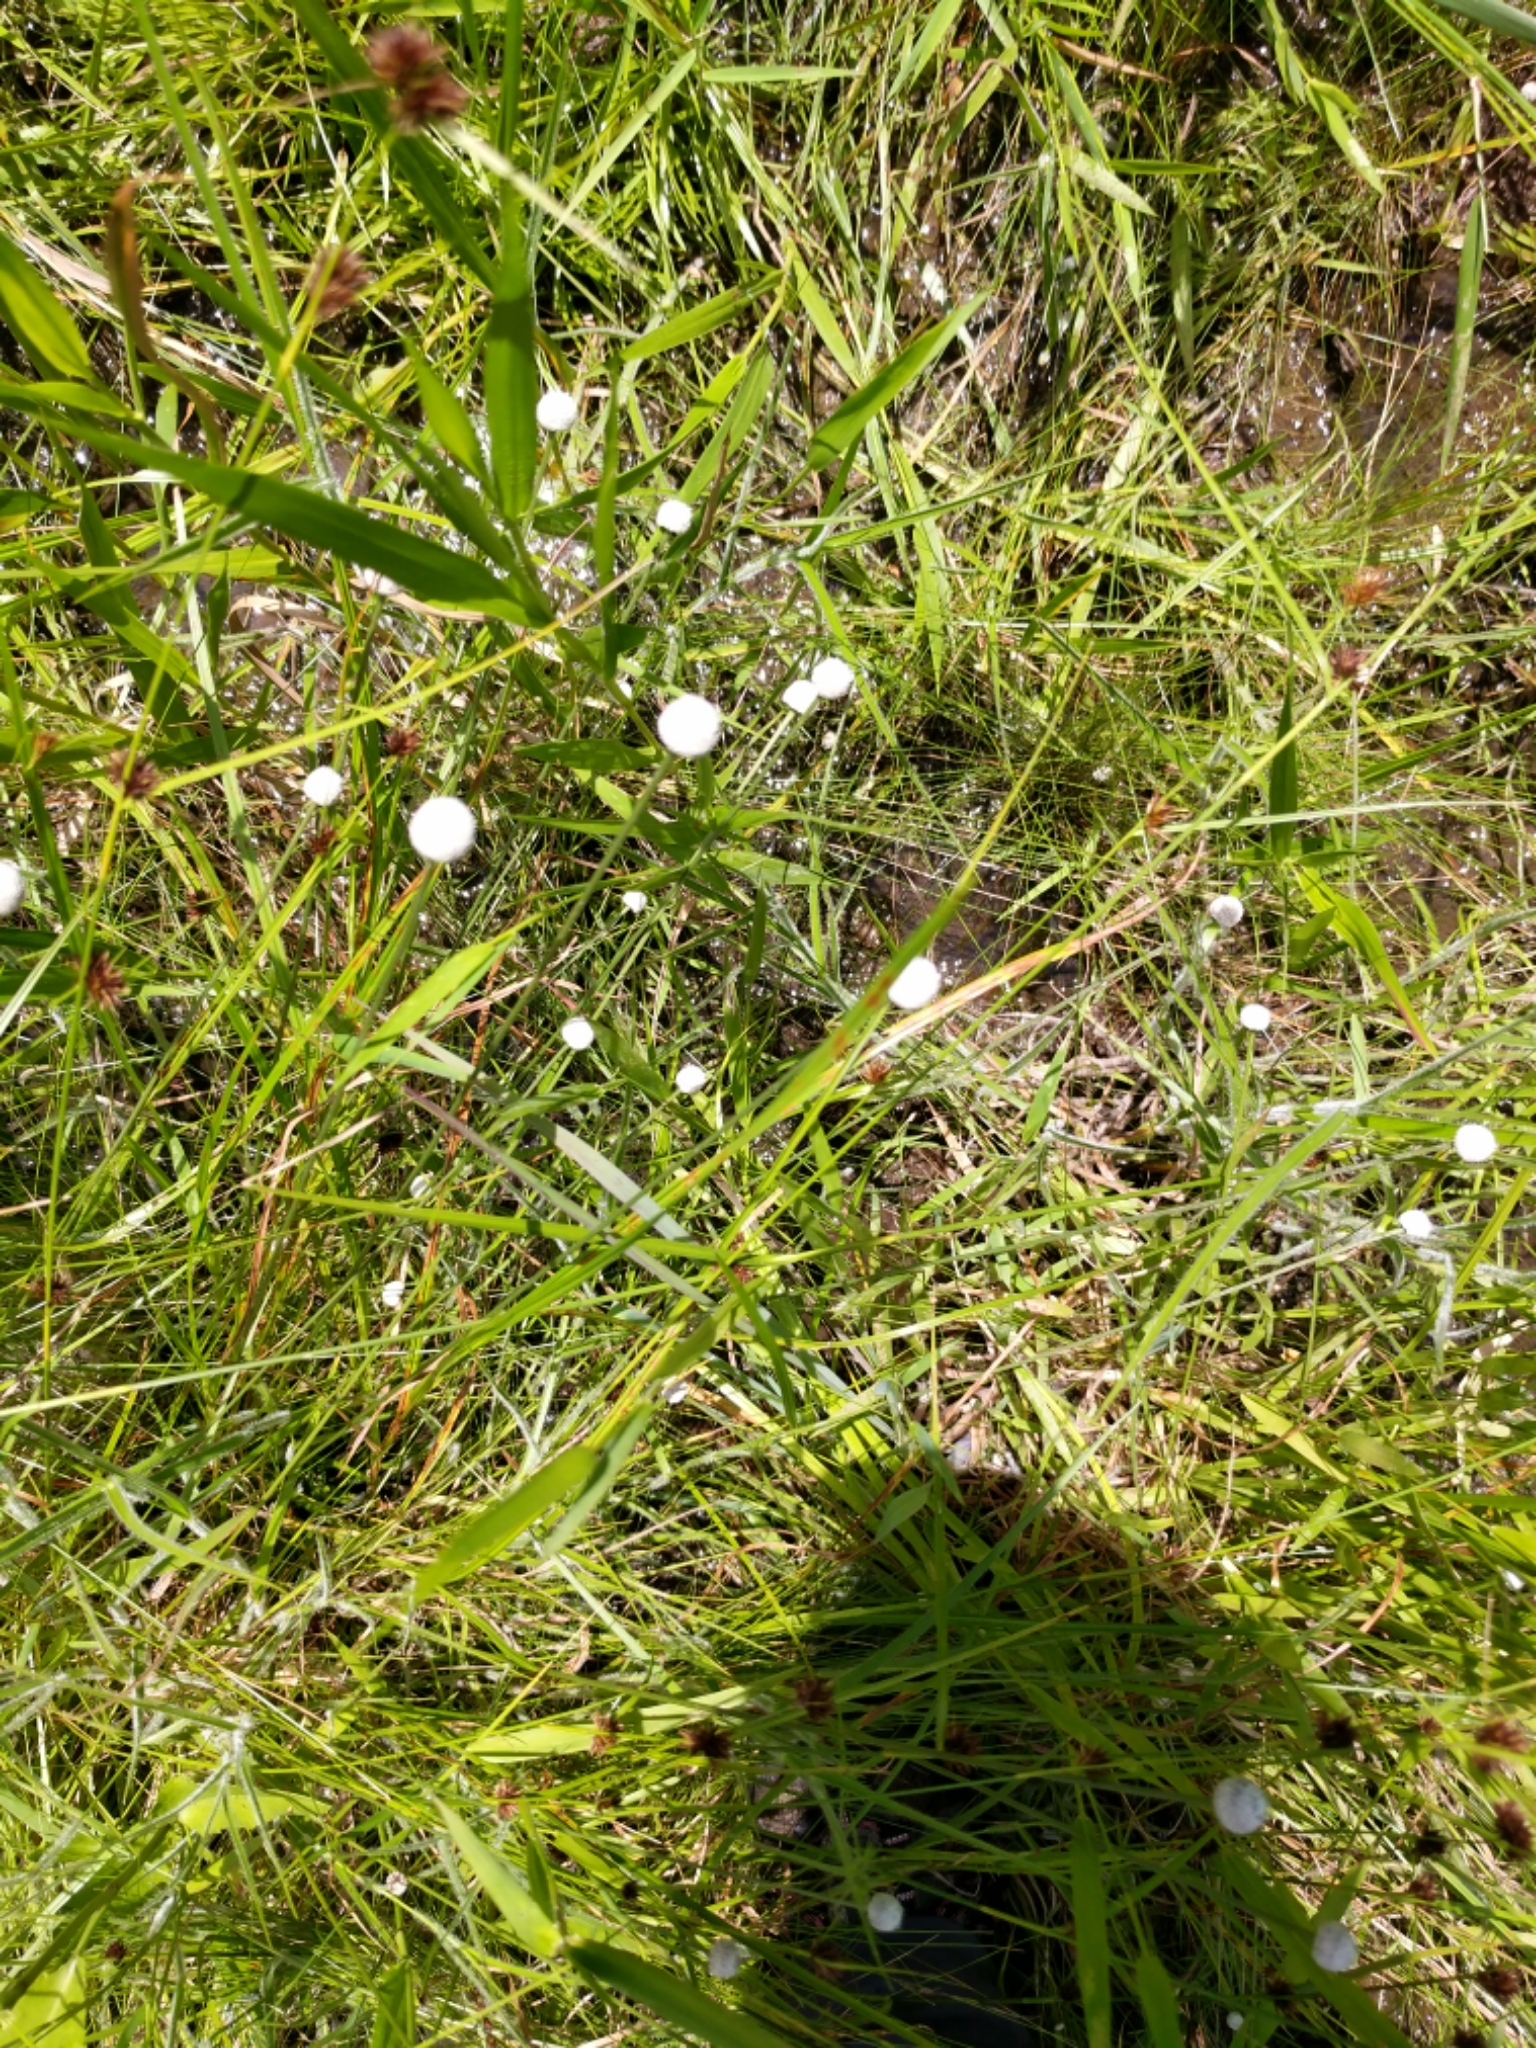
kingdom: Plantae
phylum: Tracheophyta
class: Liliopsida
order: Poales
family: Eriocaulaceae
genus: Eriocaulon
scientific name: Eriocaulon decangulare
